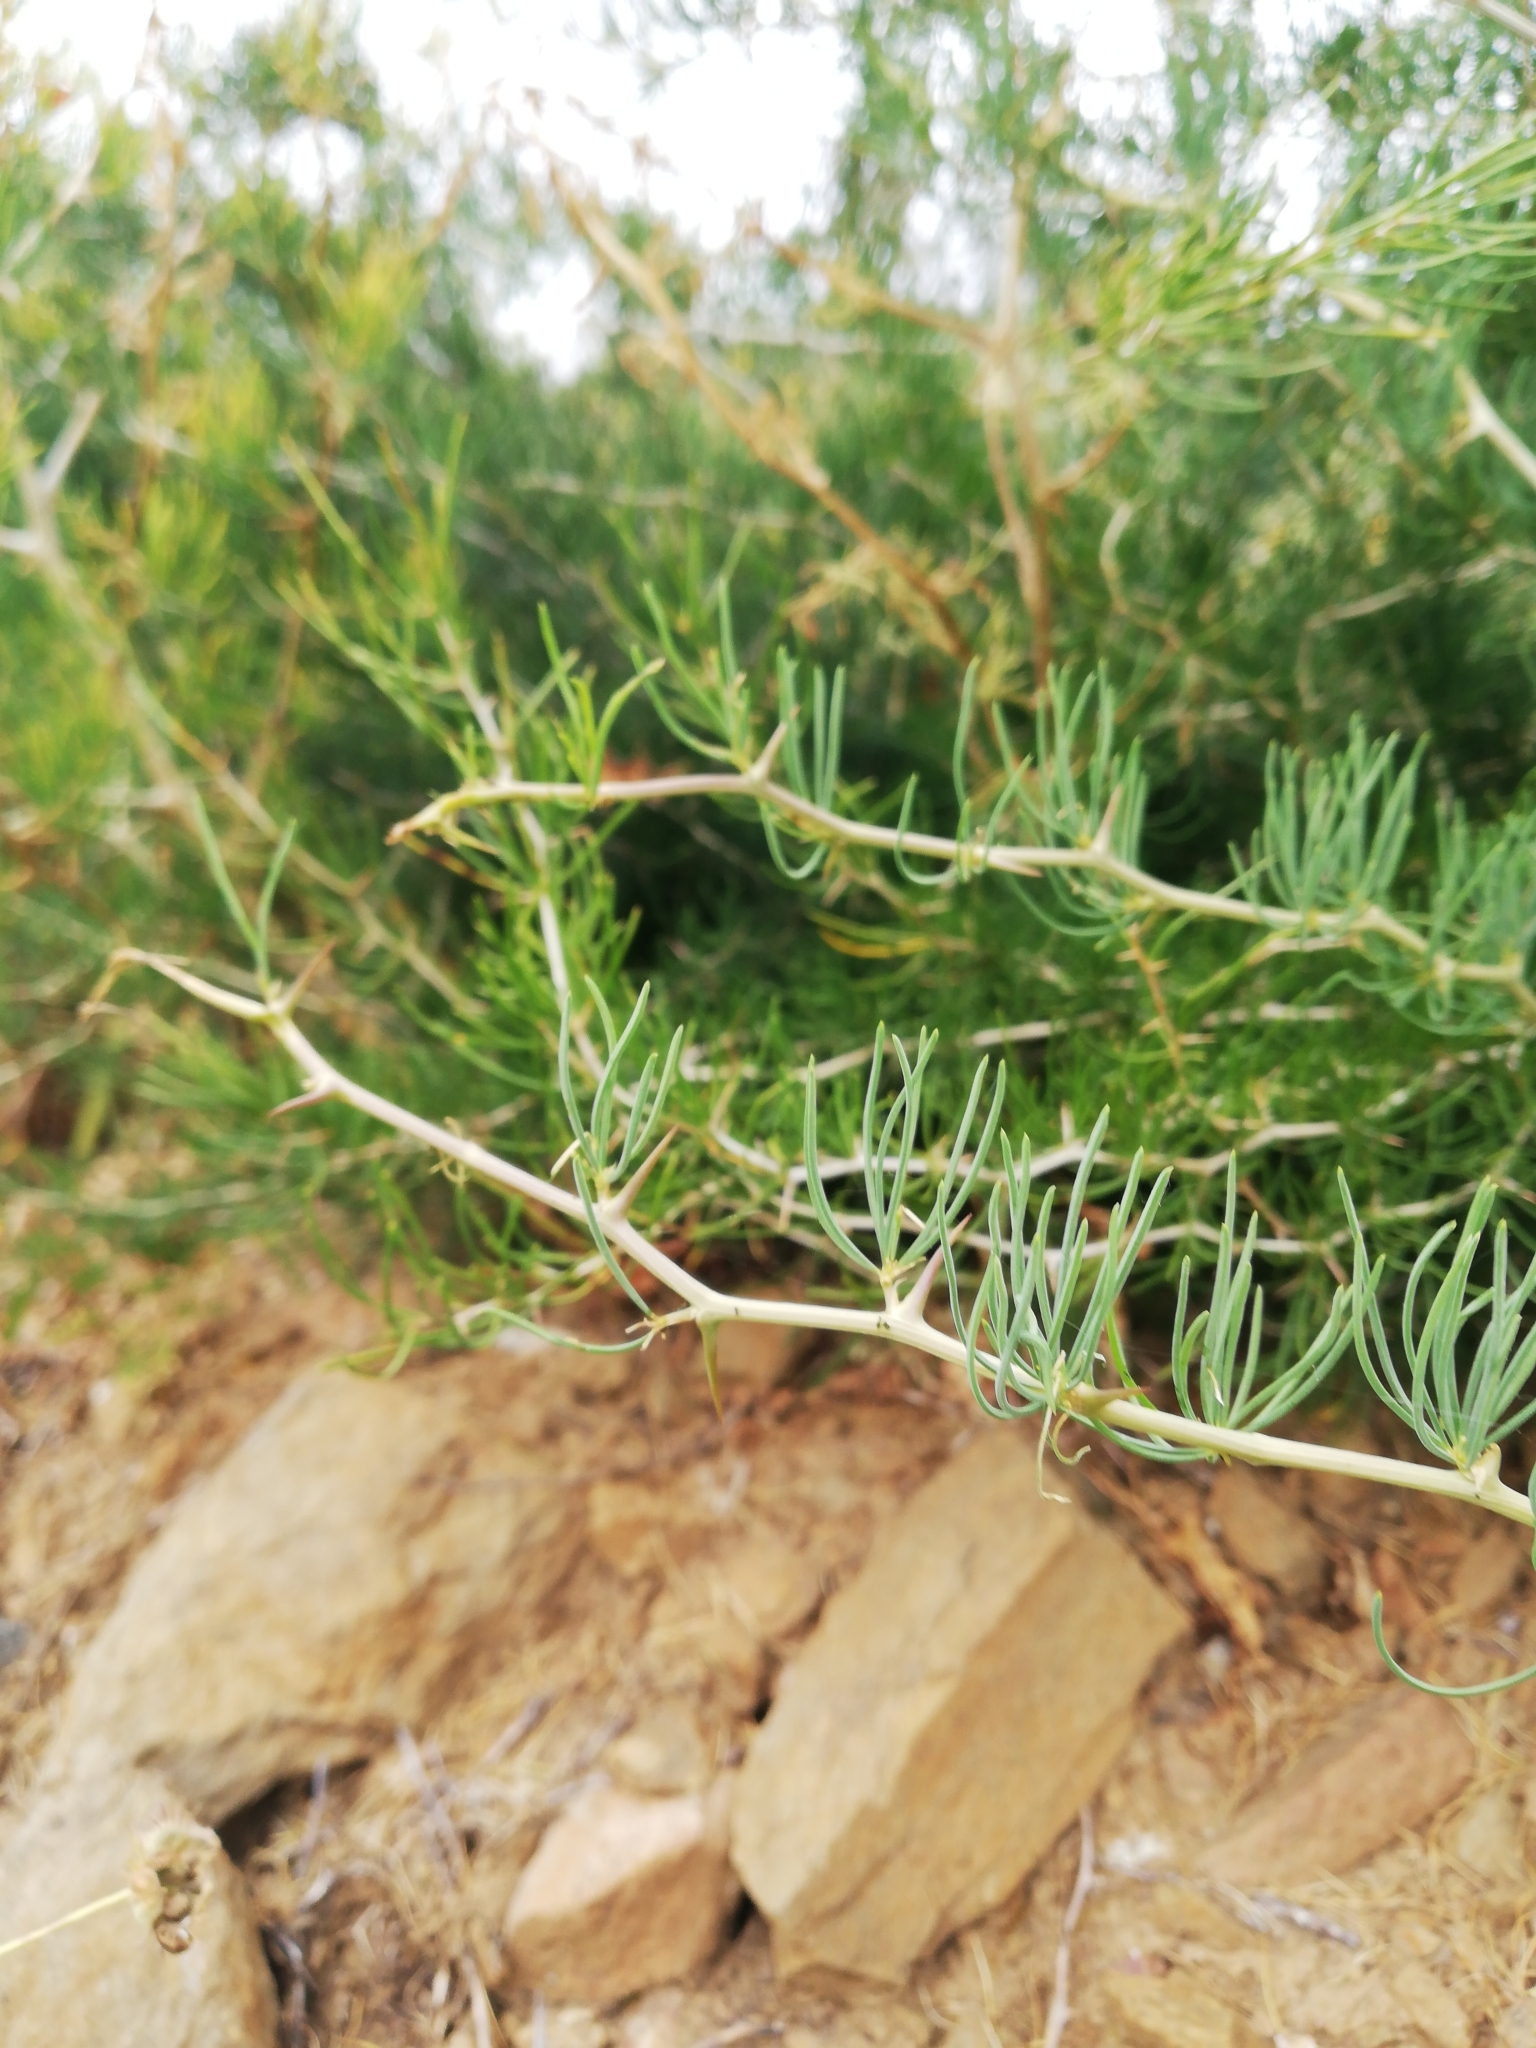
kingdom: Plantae
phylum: Tracheophyta
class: Liliopsida
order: Asparagales
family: Asparagaceae
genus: Asparagus
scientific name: Asparagus albus
